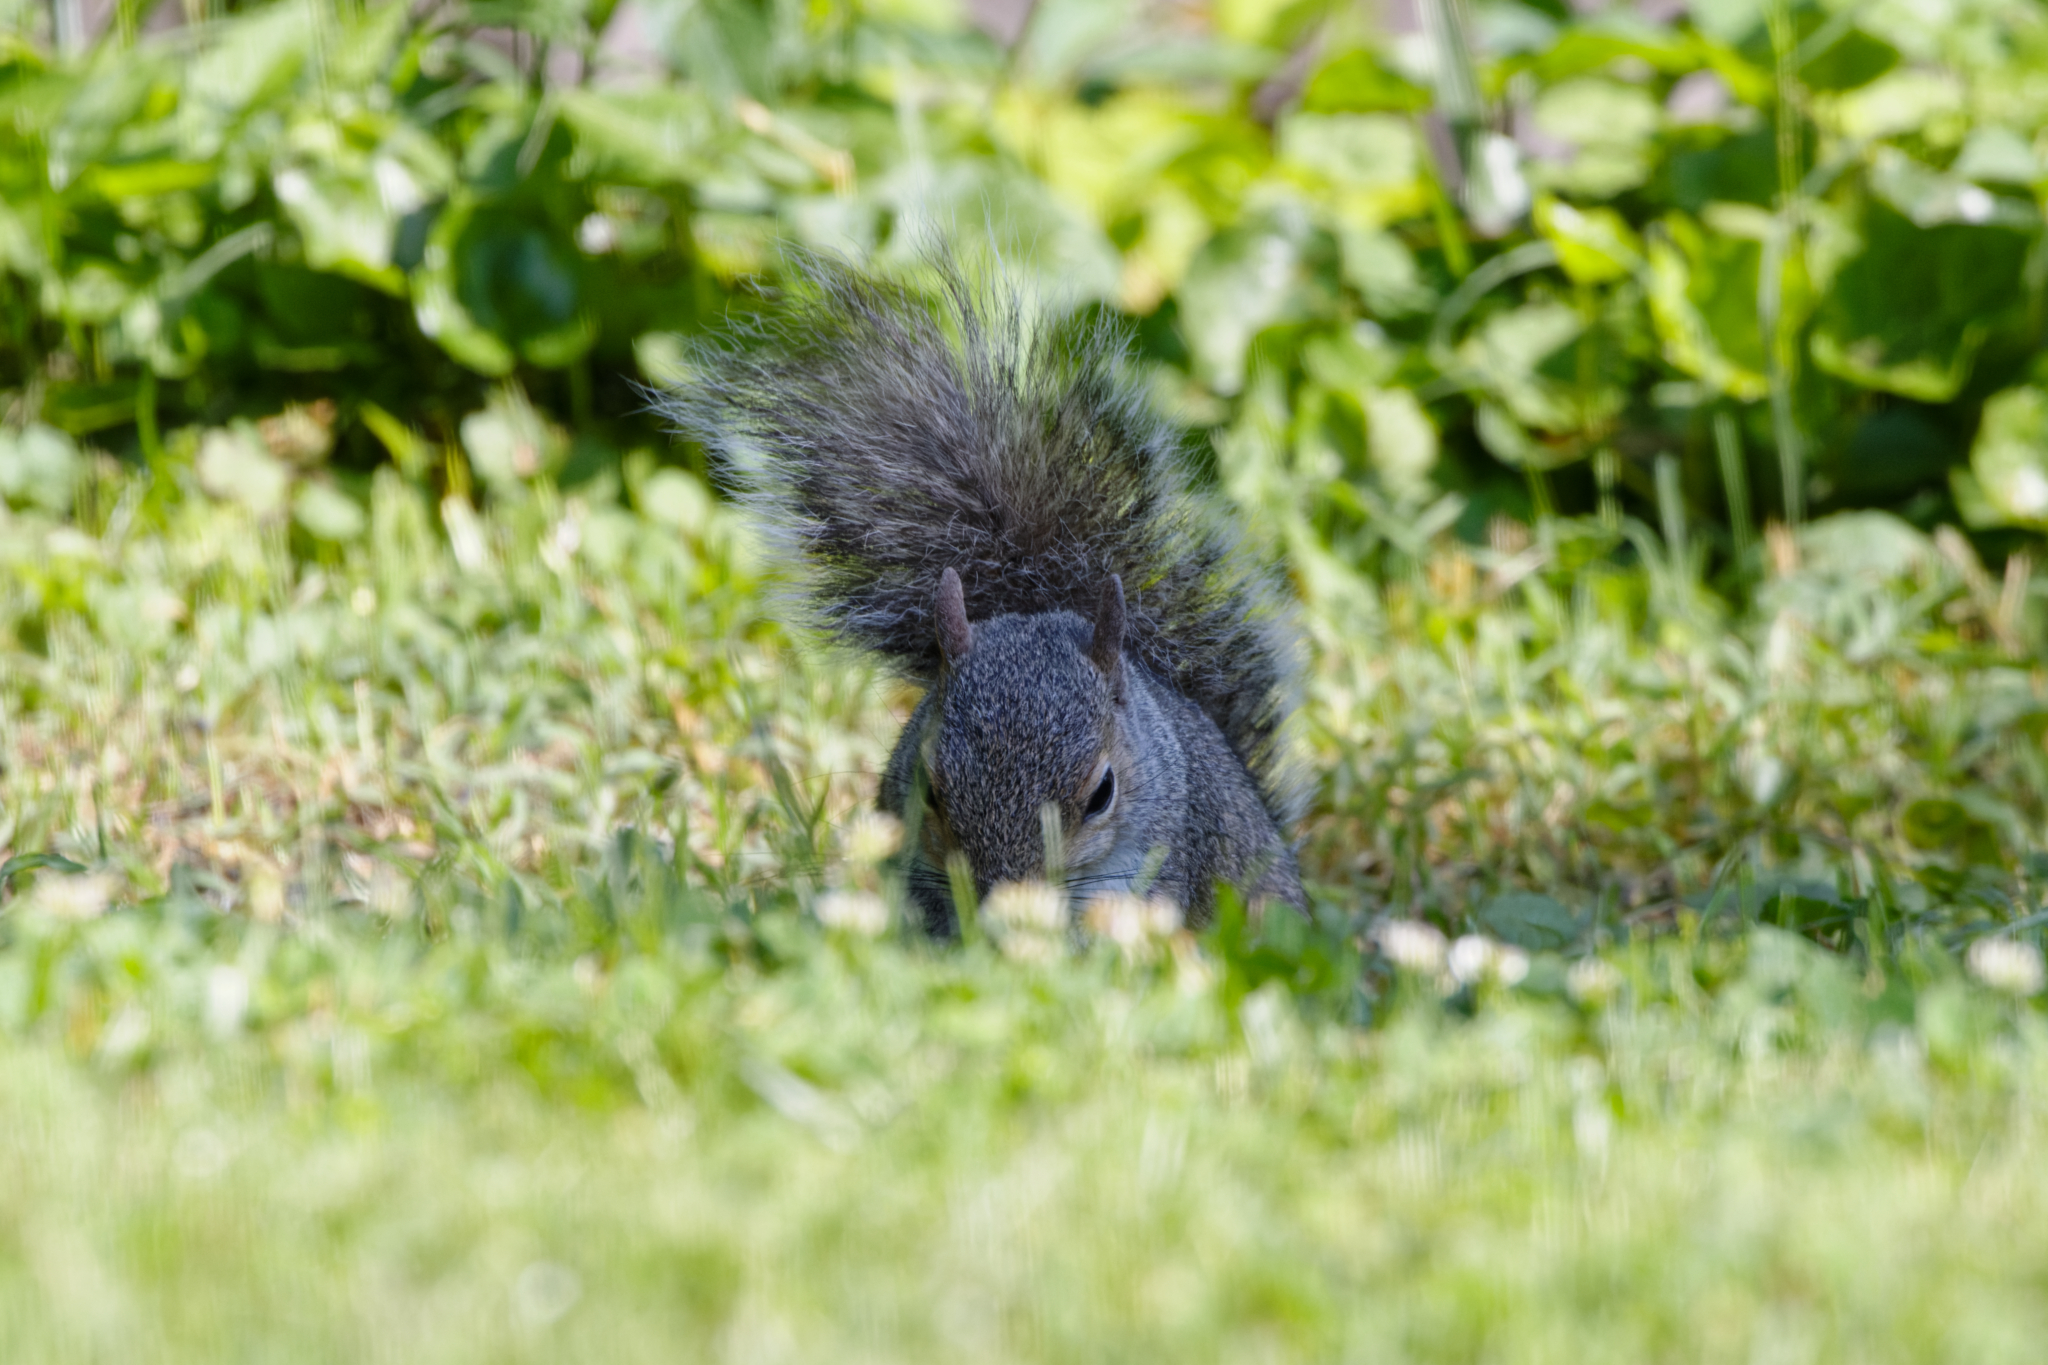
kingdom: Animalia
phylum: Chordata
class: Mammalia
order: Rodentia
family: Sciuridae
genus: Sciurus
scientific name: Sciurus carolinensis
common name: Eastern gray squirrel
